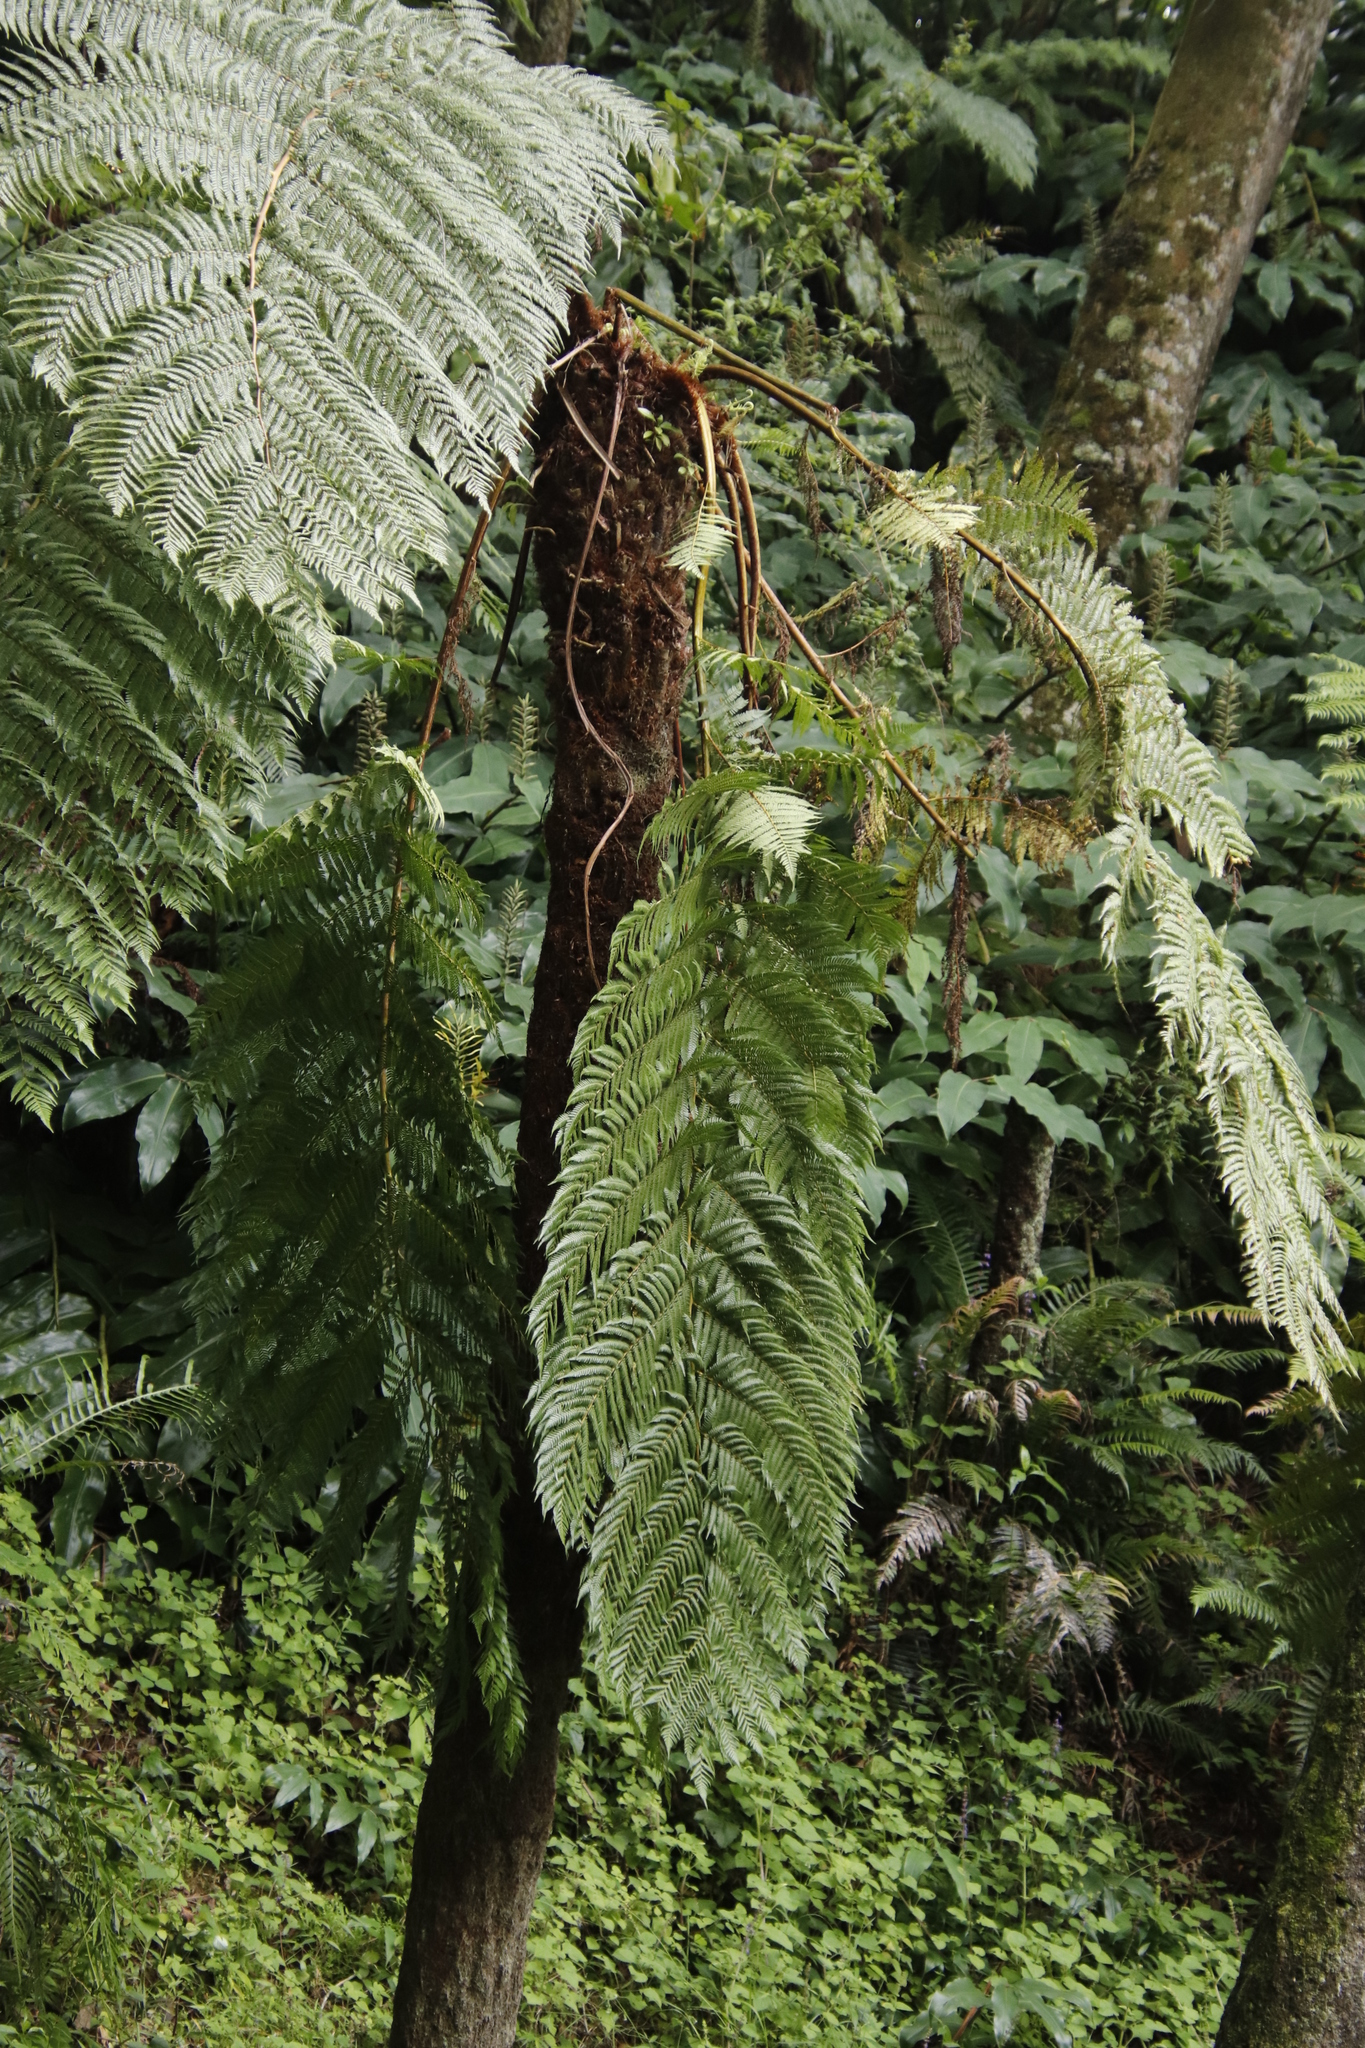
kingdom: Plantae
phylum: Tracheophyta
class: Polypodiopsida
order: Cyatheales
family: Cyatheaceae
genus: Alsophila
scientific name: Alsophila thomsonii
